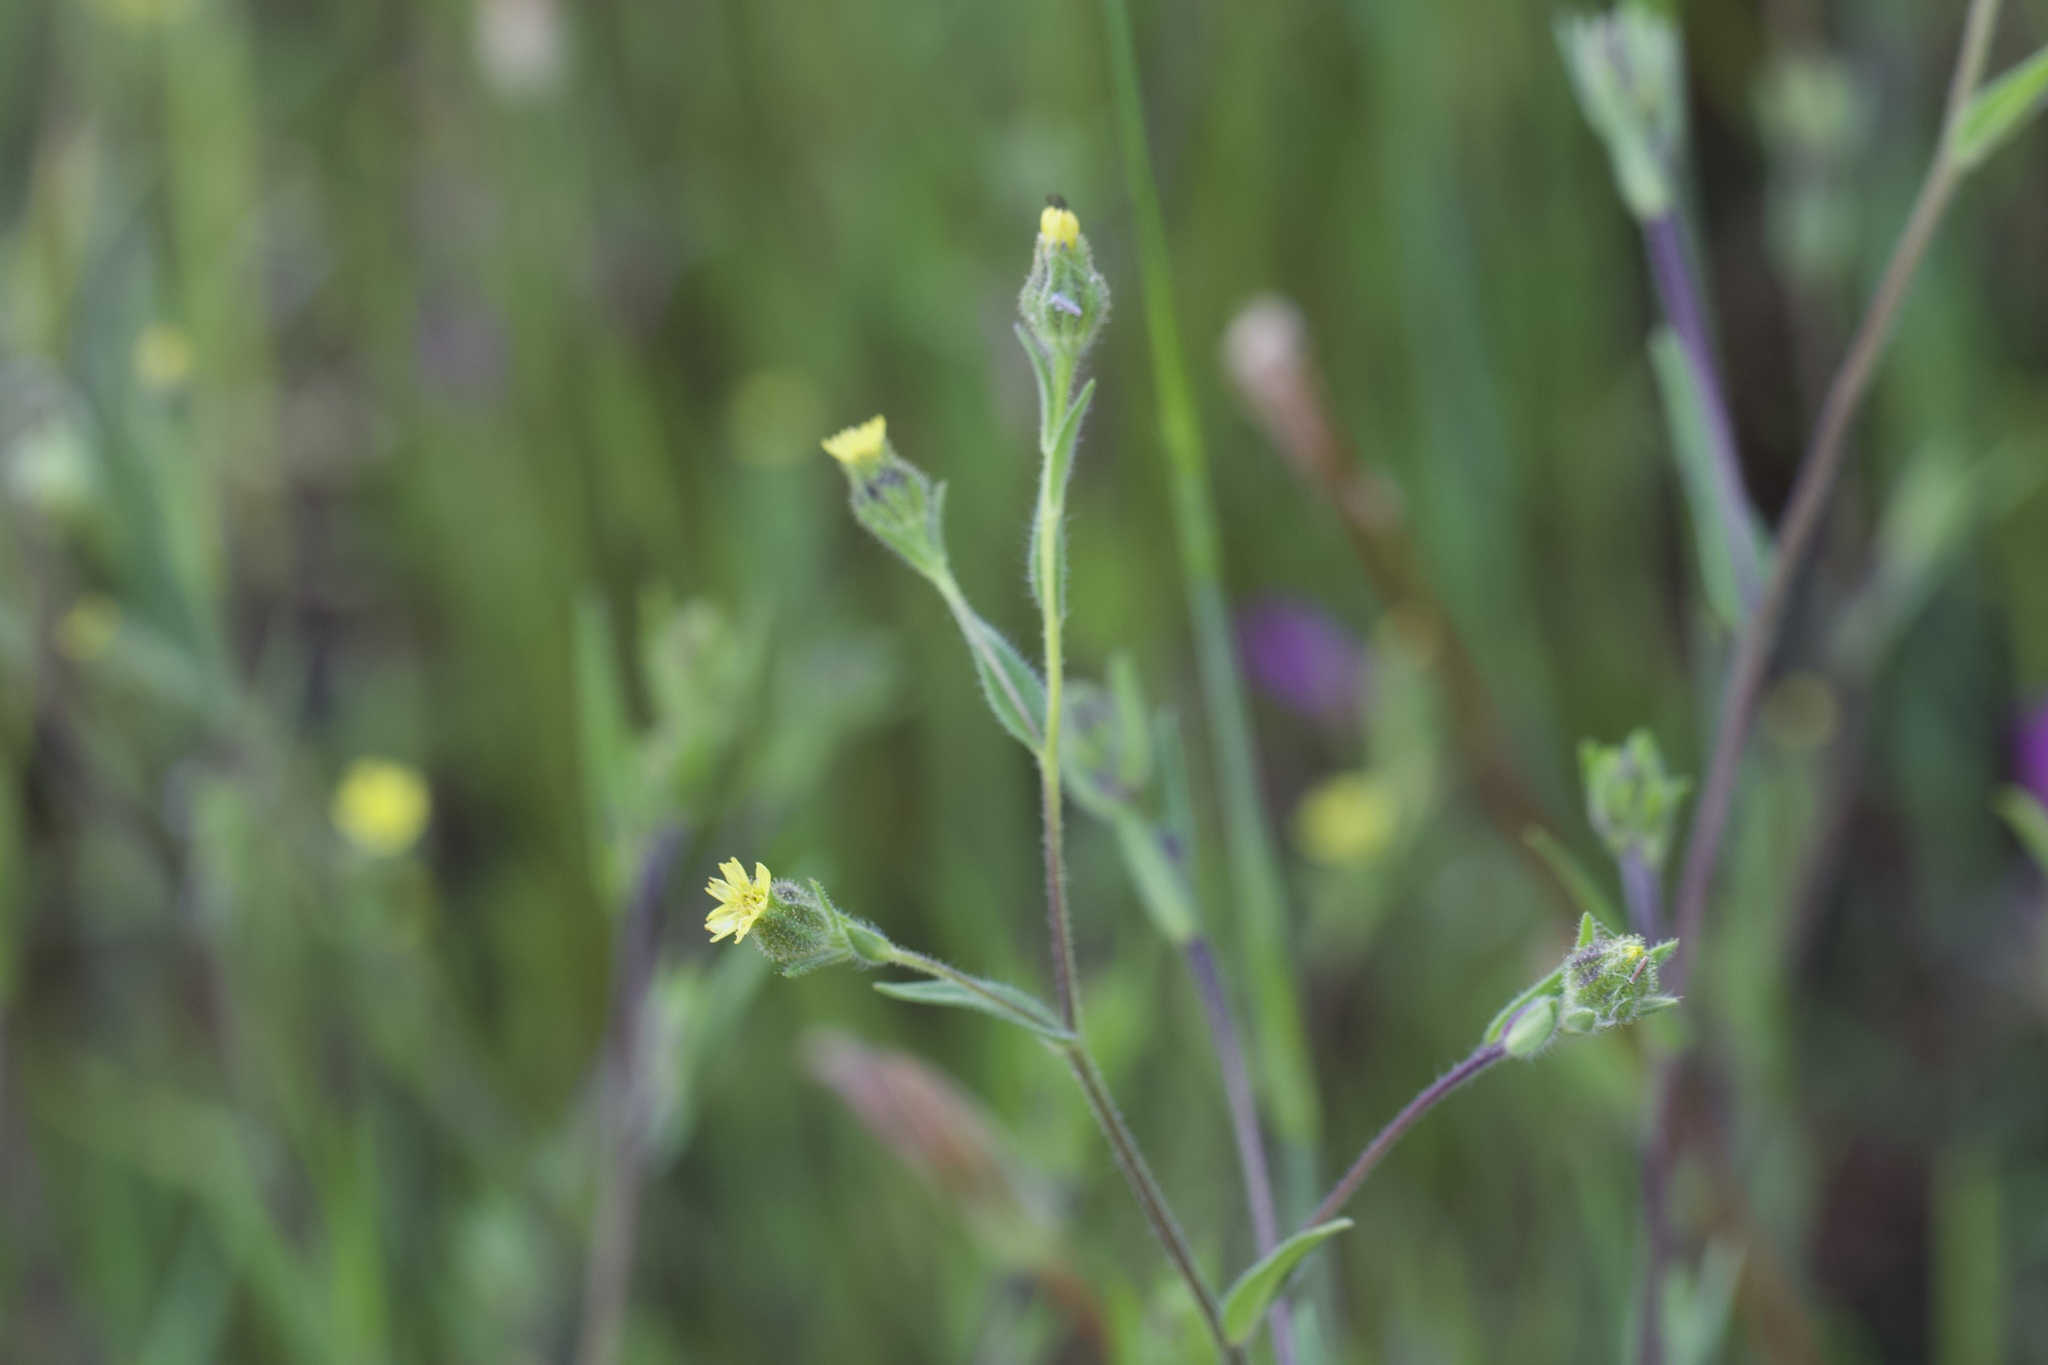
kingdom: Plantae
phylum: Tracheophyta
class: Magnoliopsida
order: Asterales
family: Asteraceae
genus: Madia
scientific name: Madia gracilis
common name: Grassy tarweed
